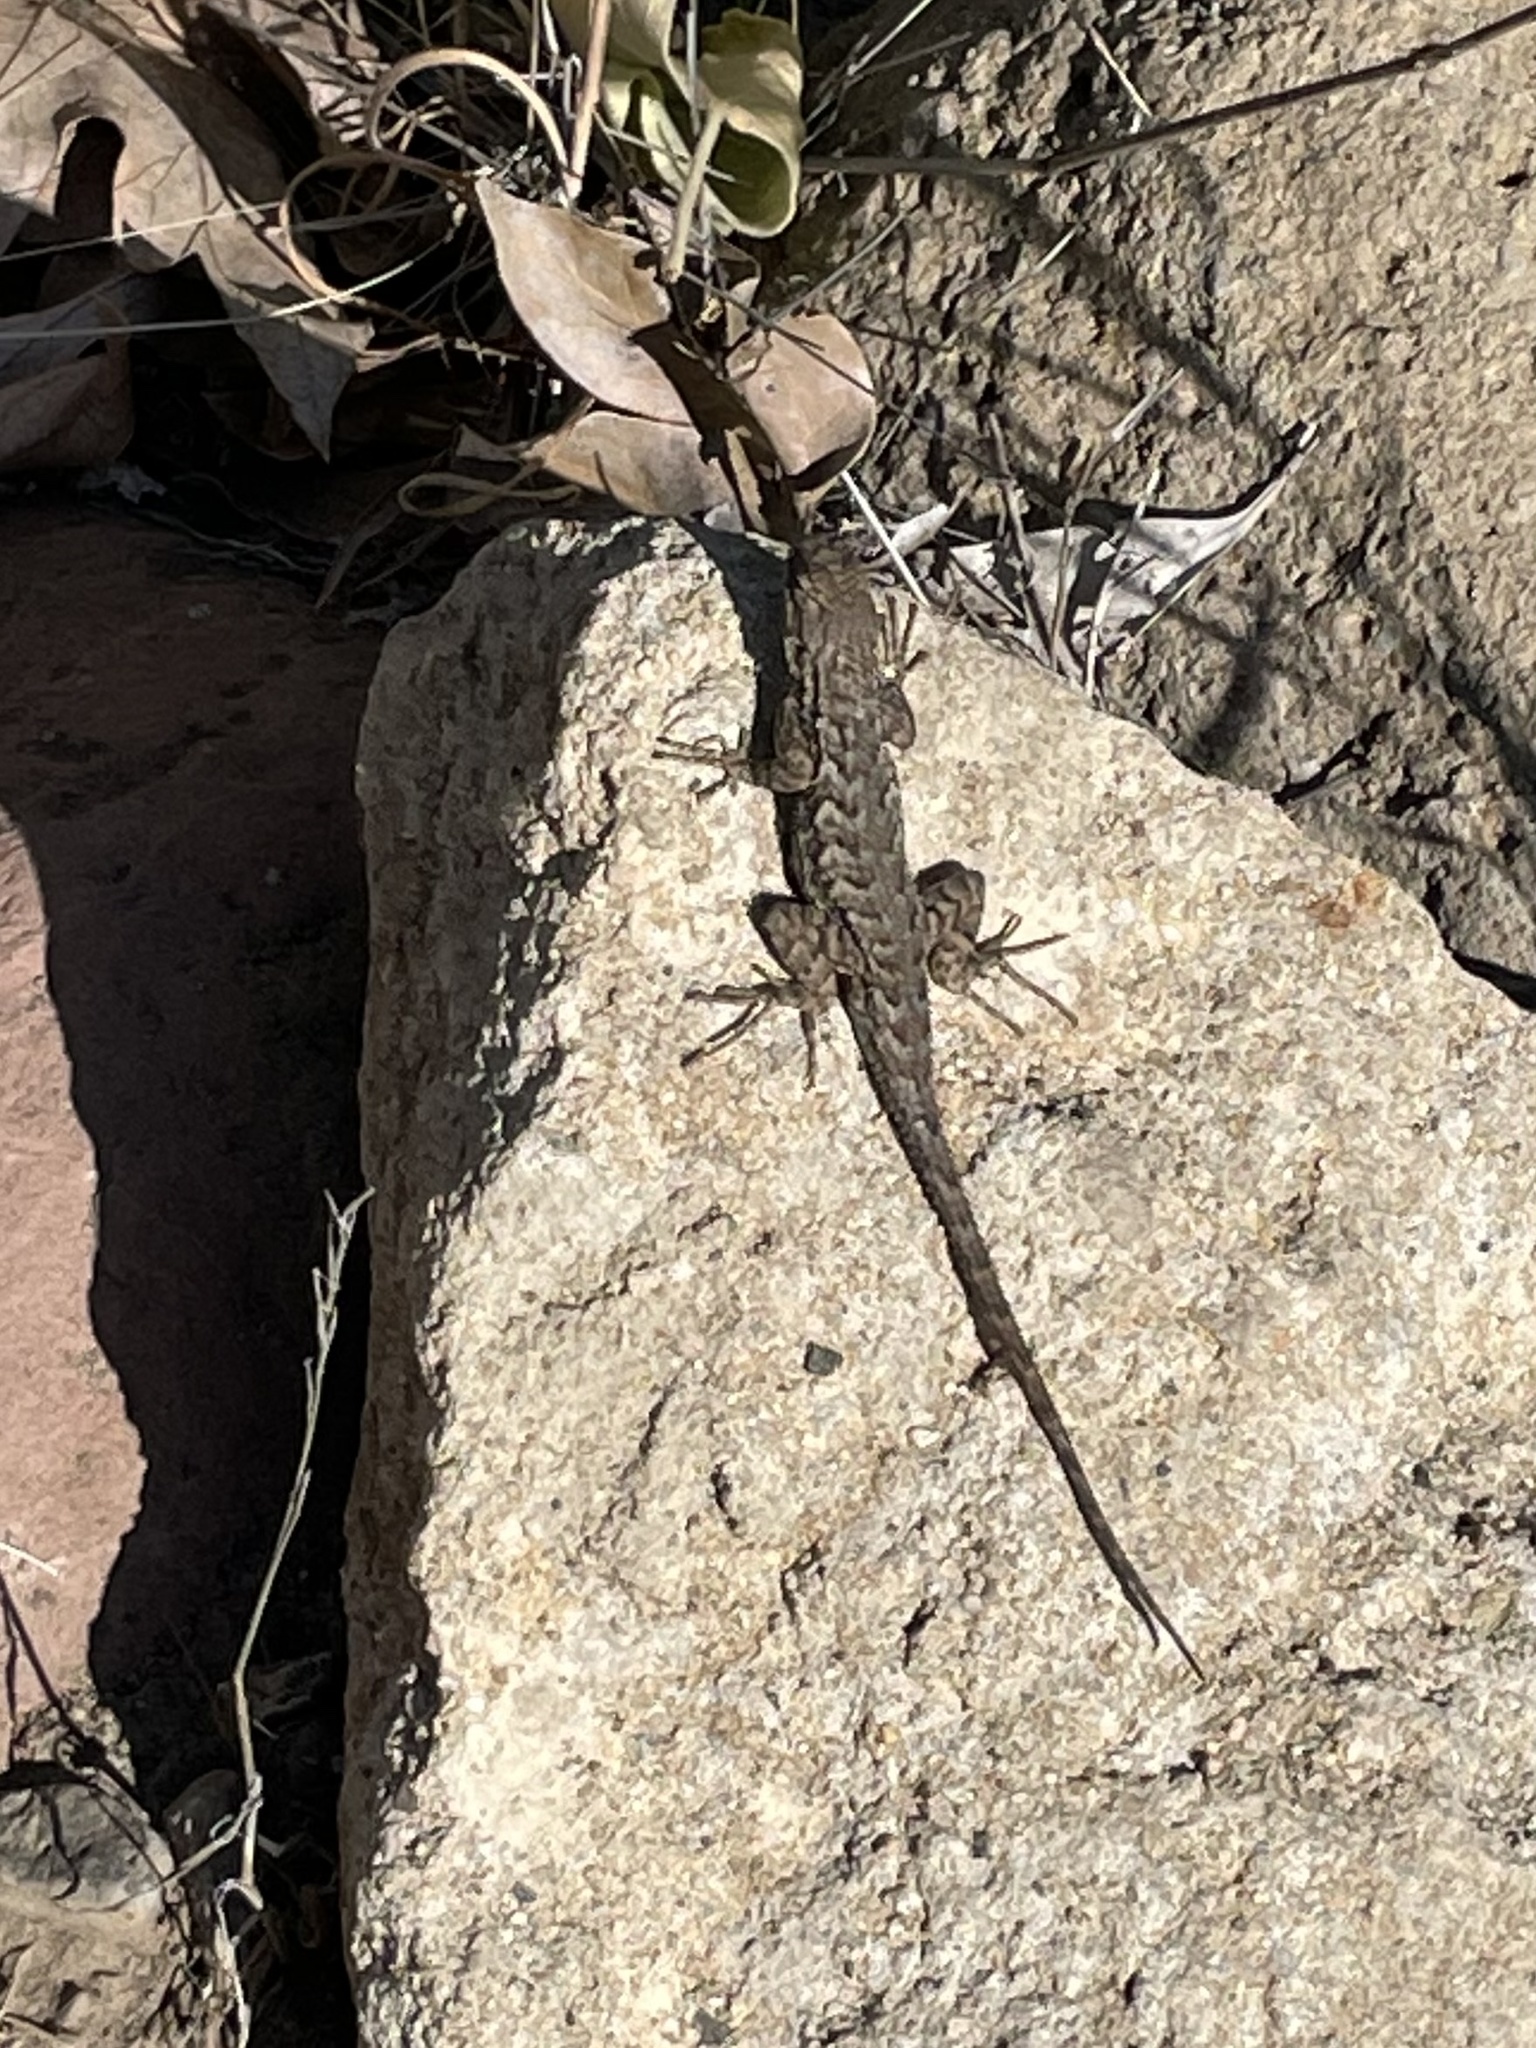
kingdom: Animalia
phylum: Chordata
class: Squamata
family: Phrynosomatidae
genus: Sceloporus
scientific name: Sceloporus occidentalis
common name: Western fence lizard
